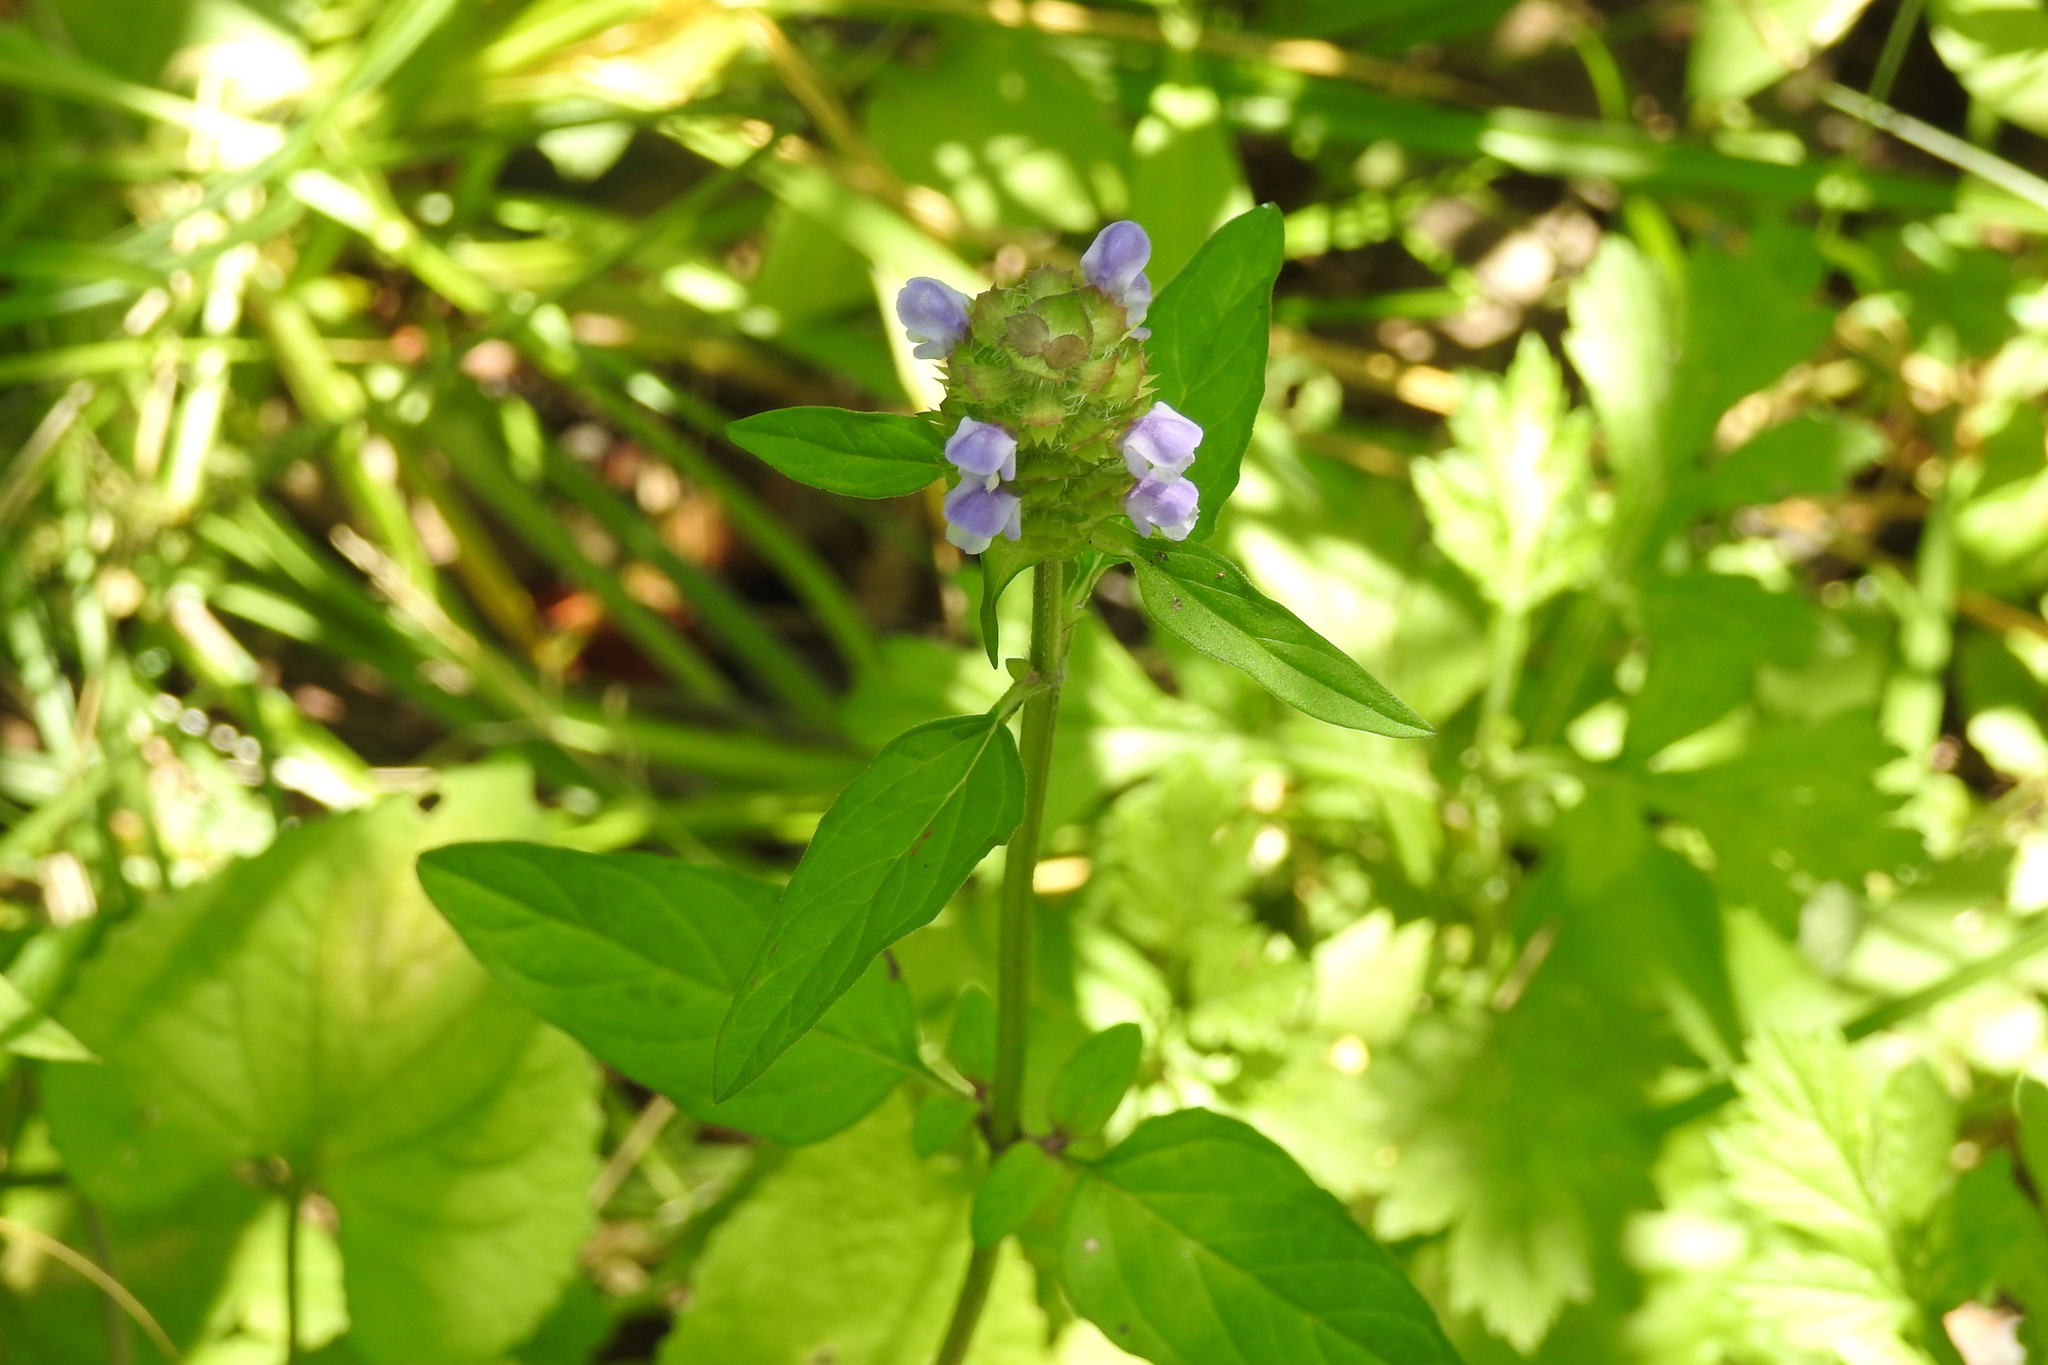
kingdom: Plantae
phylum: Tracheophyta
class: Magnoliopsida
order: Lamiales
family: Lamiaceae
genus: Prunella
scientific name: Prunella vulgaris
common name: Heal-all
